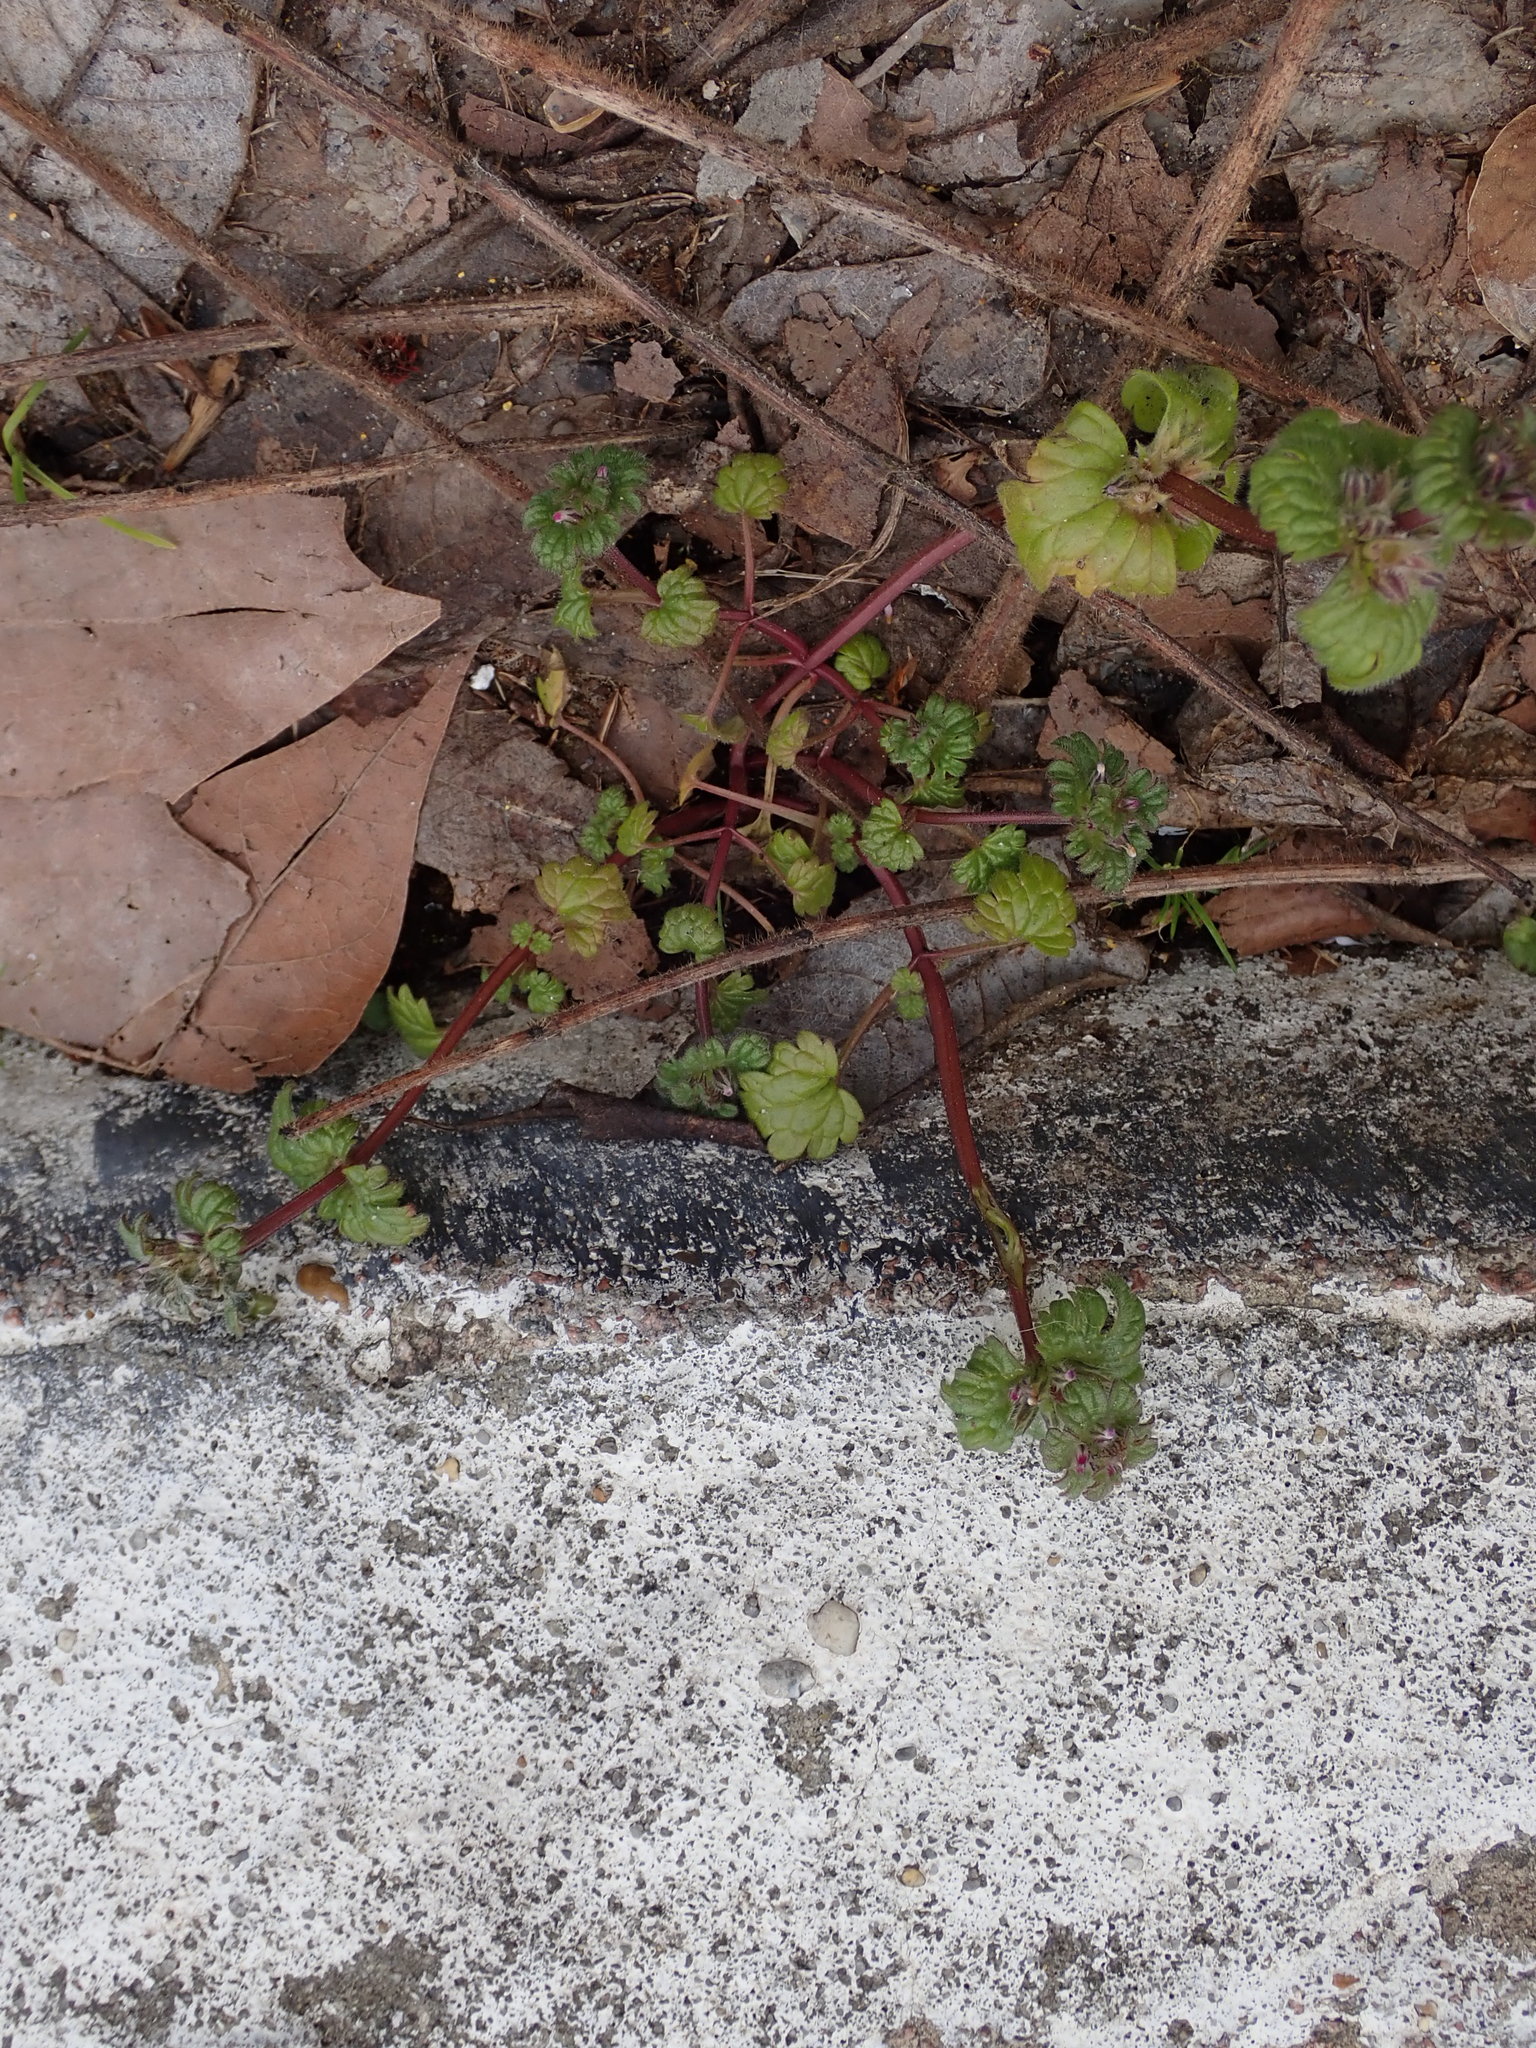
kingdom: Plantae
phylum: Tracheophyta
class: Magnoliopsida
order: Lamiales
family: Lamiaceae
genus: Lamium
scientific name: Lamium amplexicaule
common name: Henbit dead-nettle
